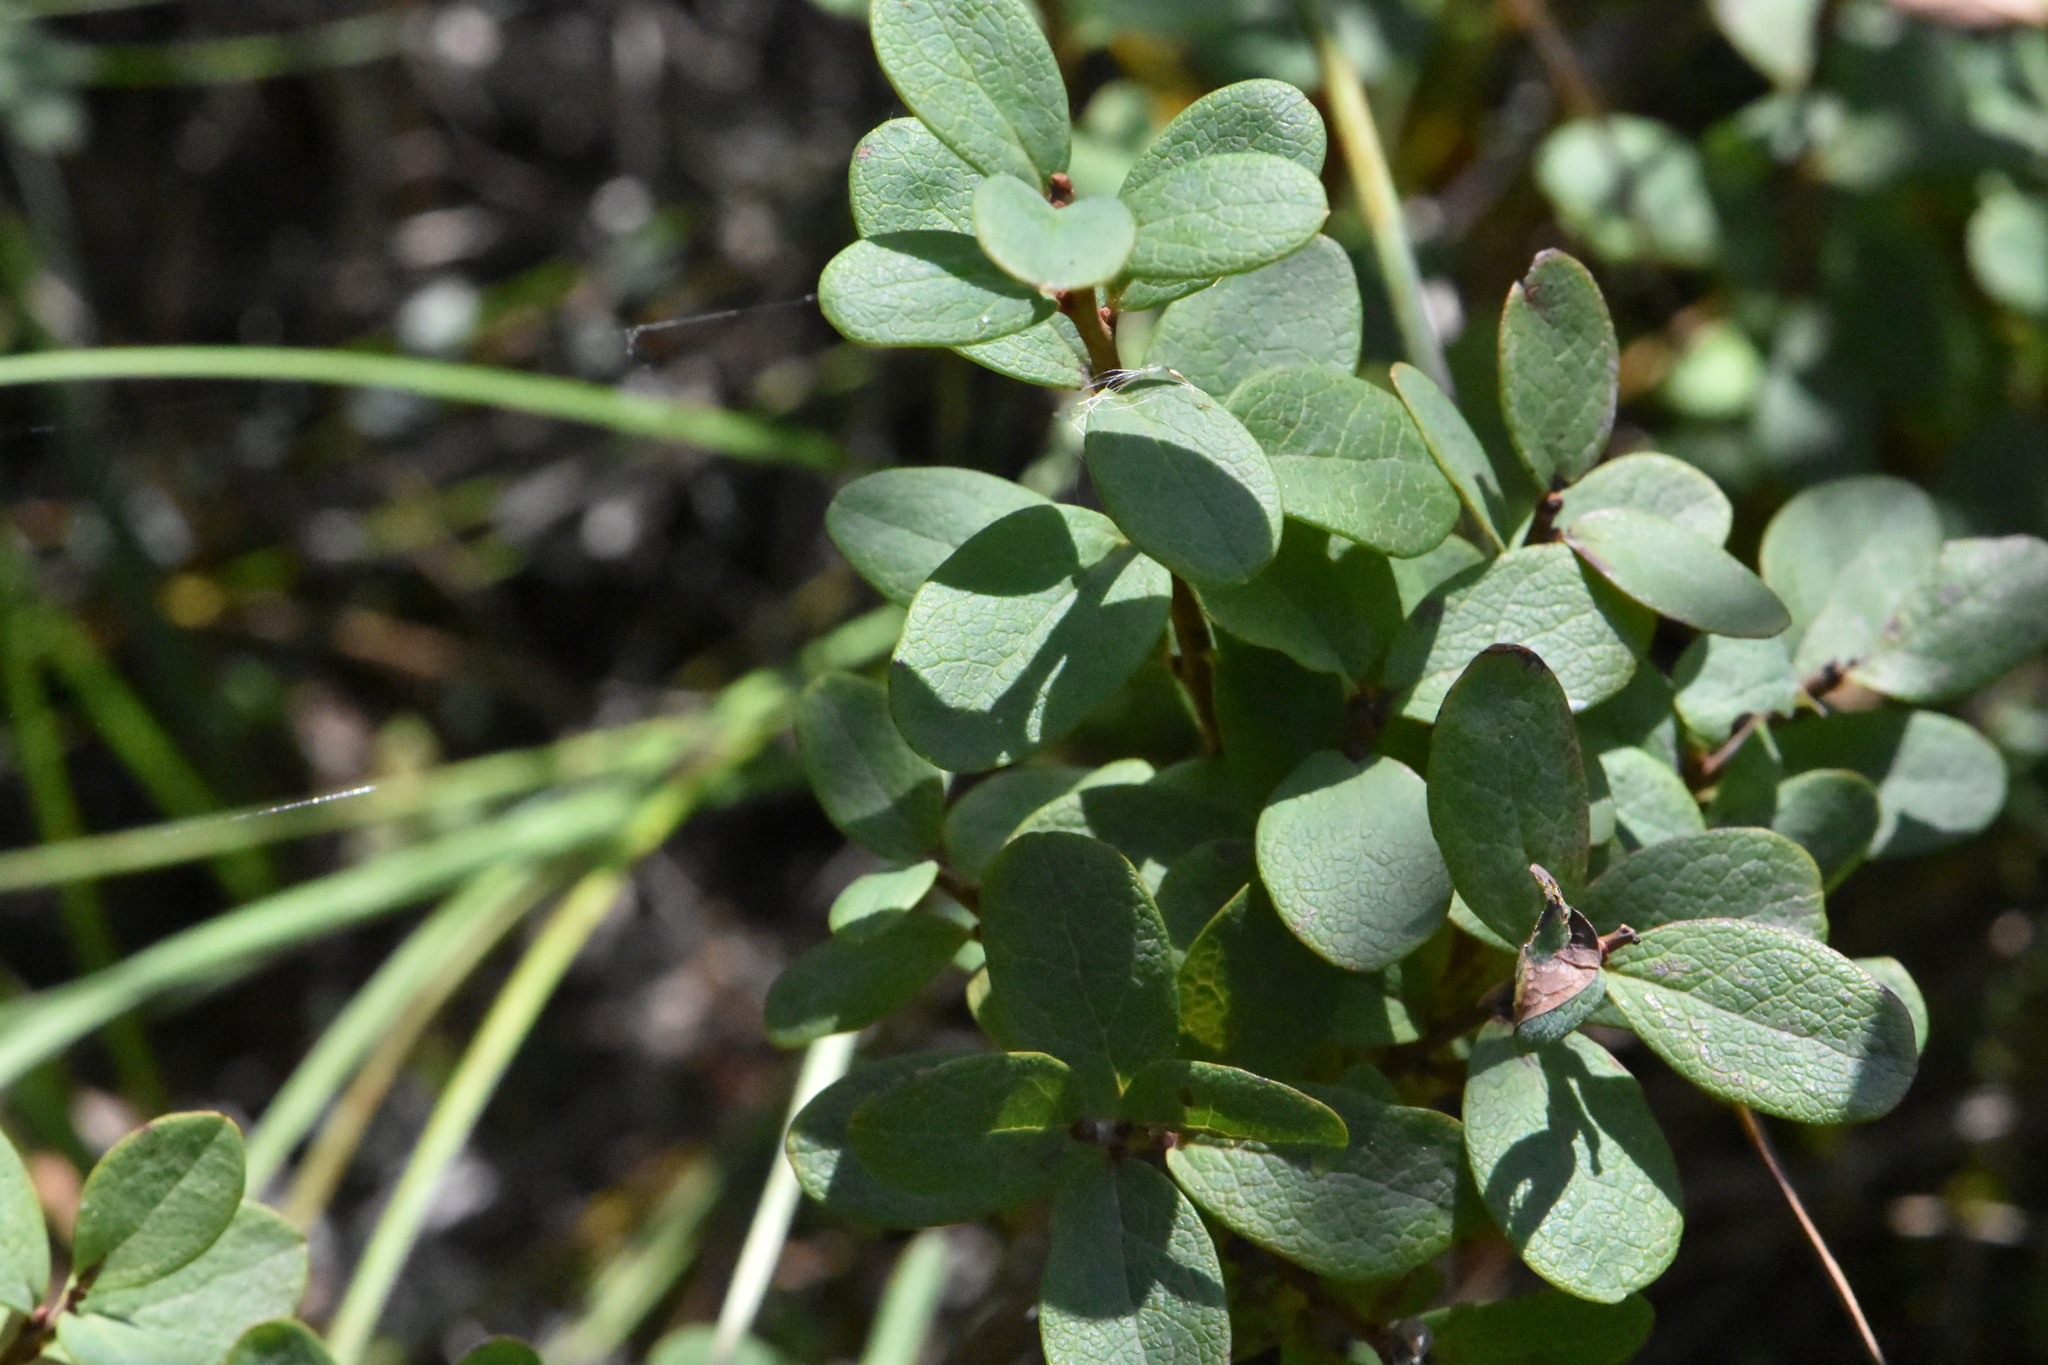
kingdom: Plantae
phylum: Tracheophyta
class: Magnoliopsida
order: Ericales
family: Ericaceae
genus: Vaccinium
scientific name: Vaccinium uliginosum
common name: Bog bilberry
